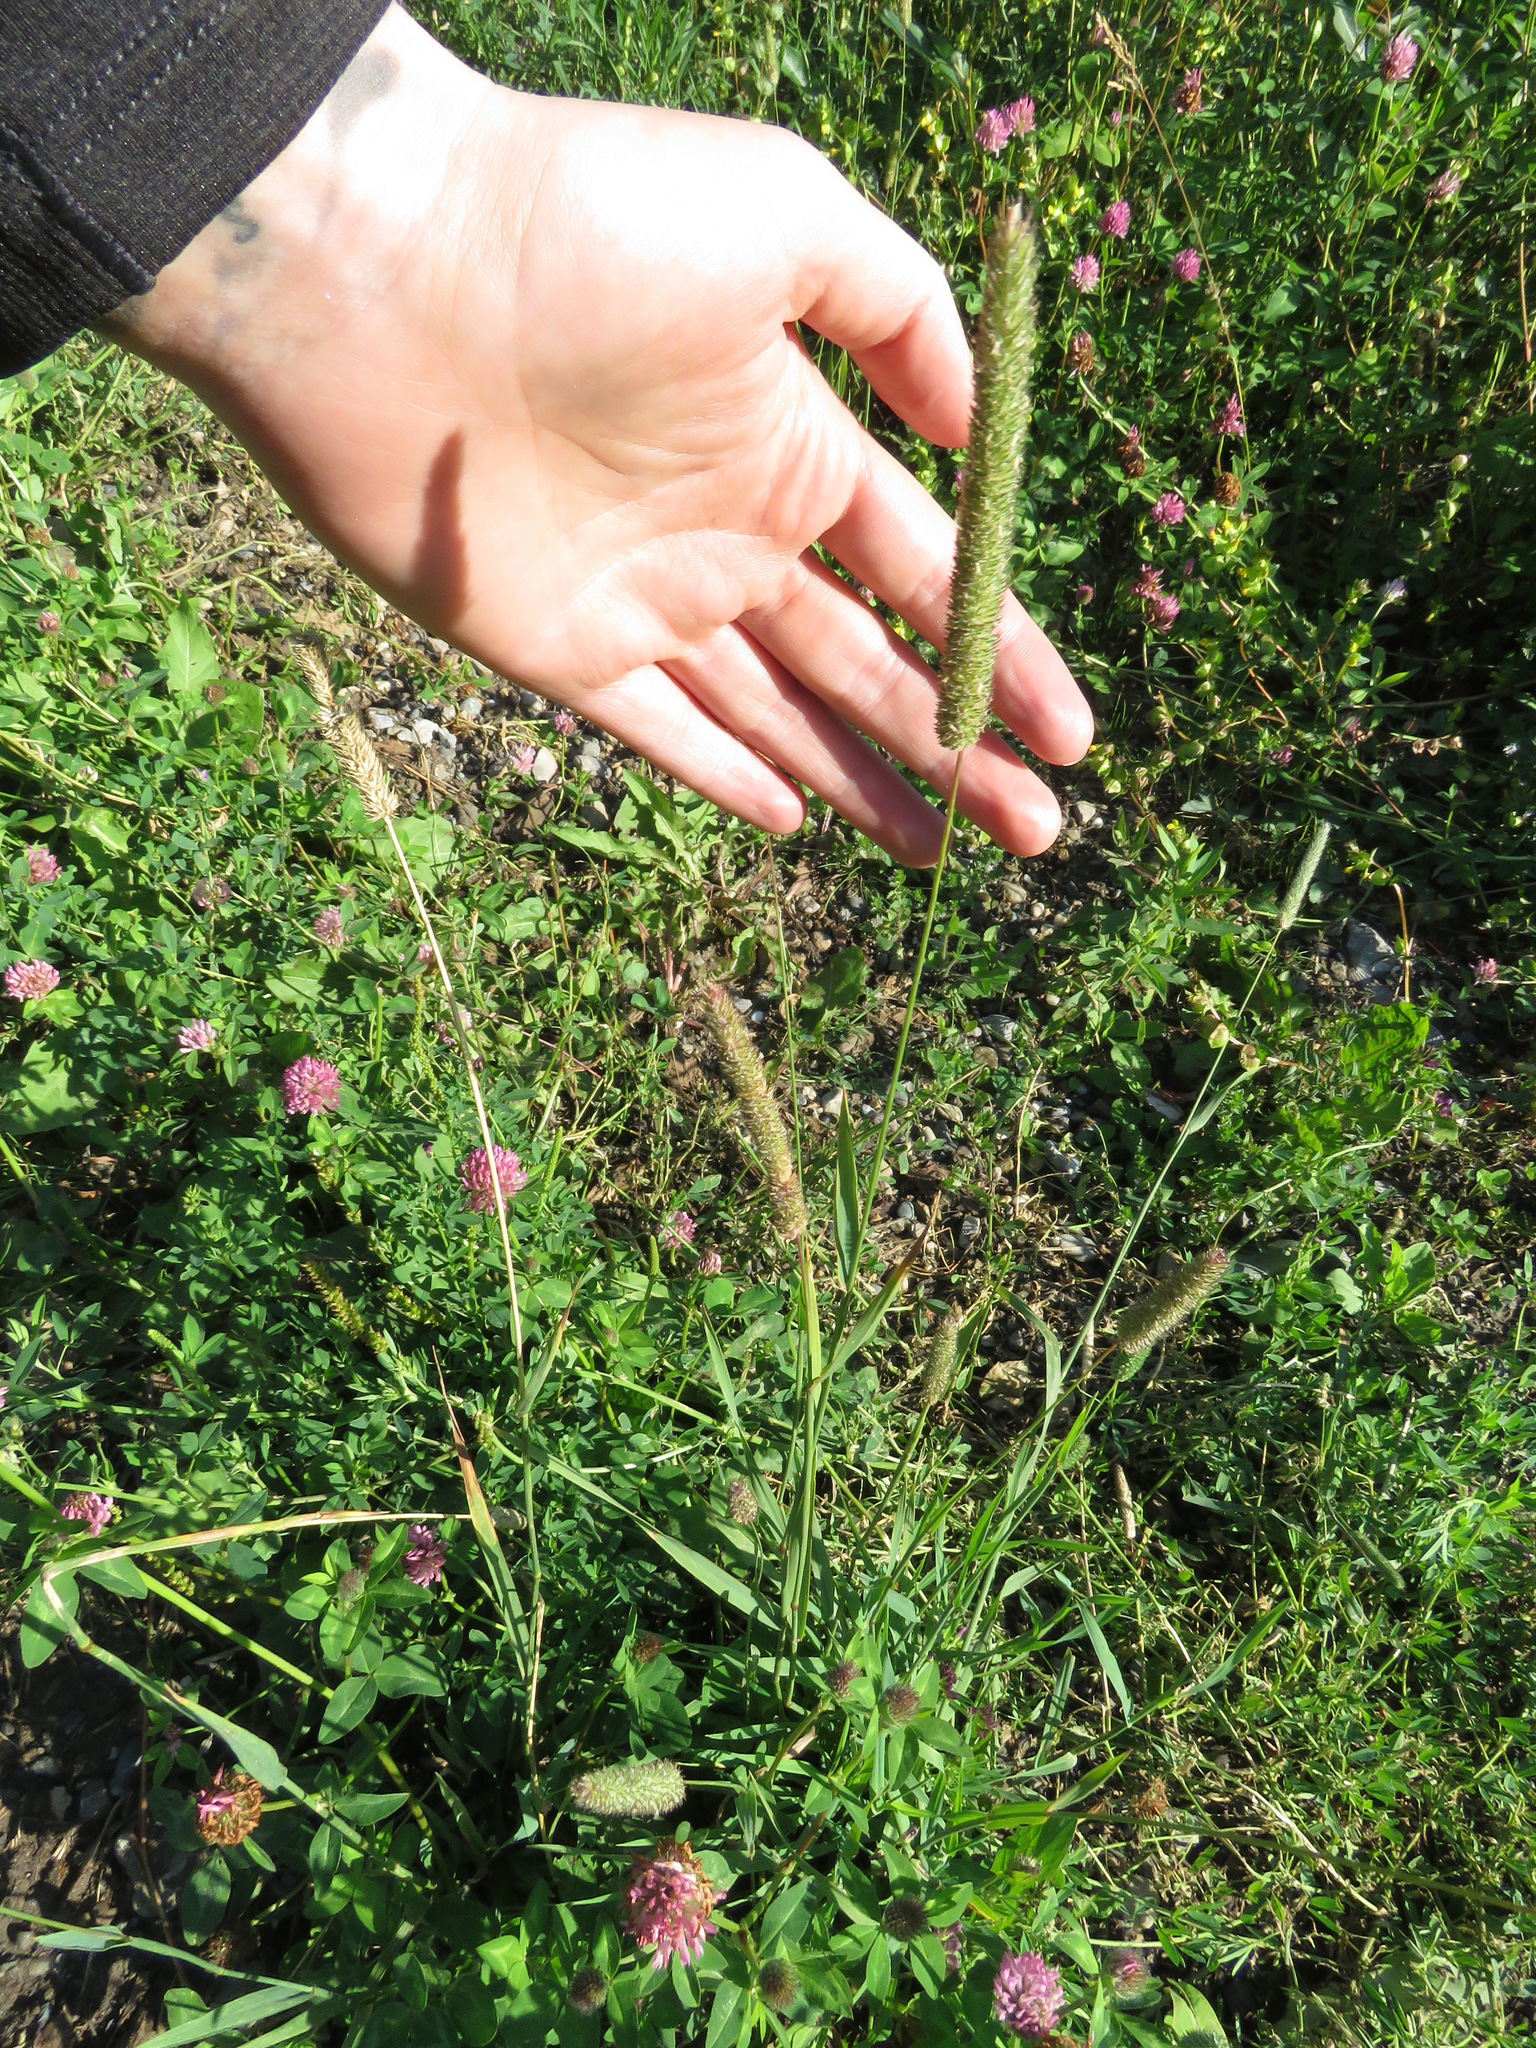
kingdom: Plantae
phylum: Tracheophyta
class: Liliopsida
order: Poales
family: Poaceae
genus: Phleum
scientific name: Phleum pratense
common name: Timothy grass
